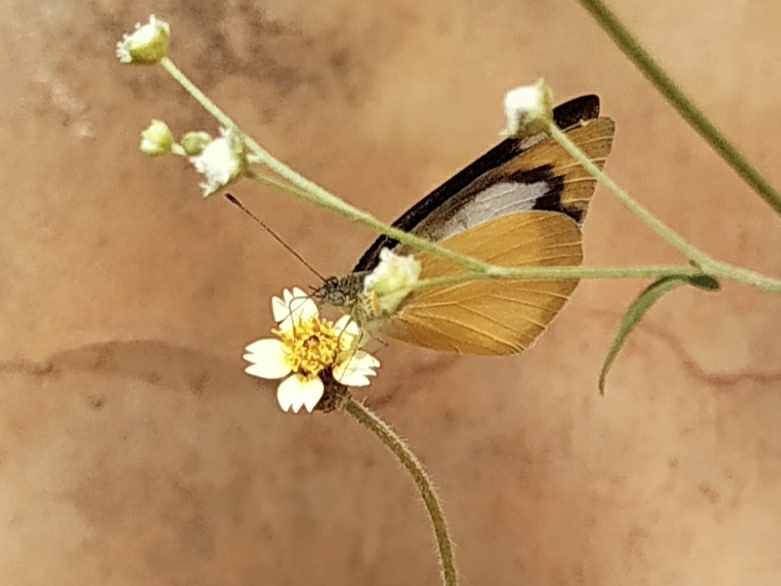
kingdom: Animalia
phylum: Arthropoda
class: Insecta
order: Lepidoptera
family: Pieridae
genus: Appias
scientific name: Appias albina
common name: Common albatross
